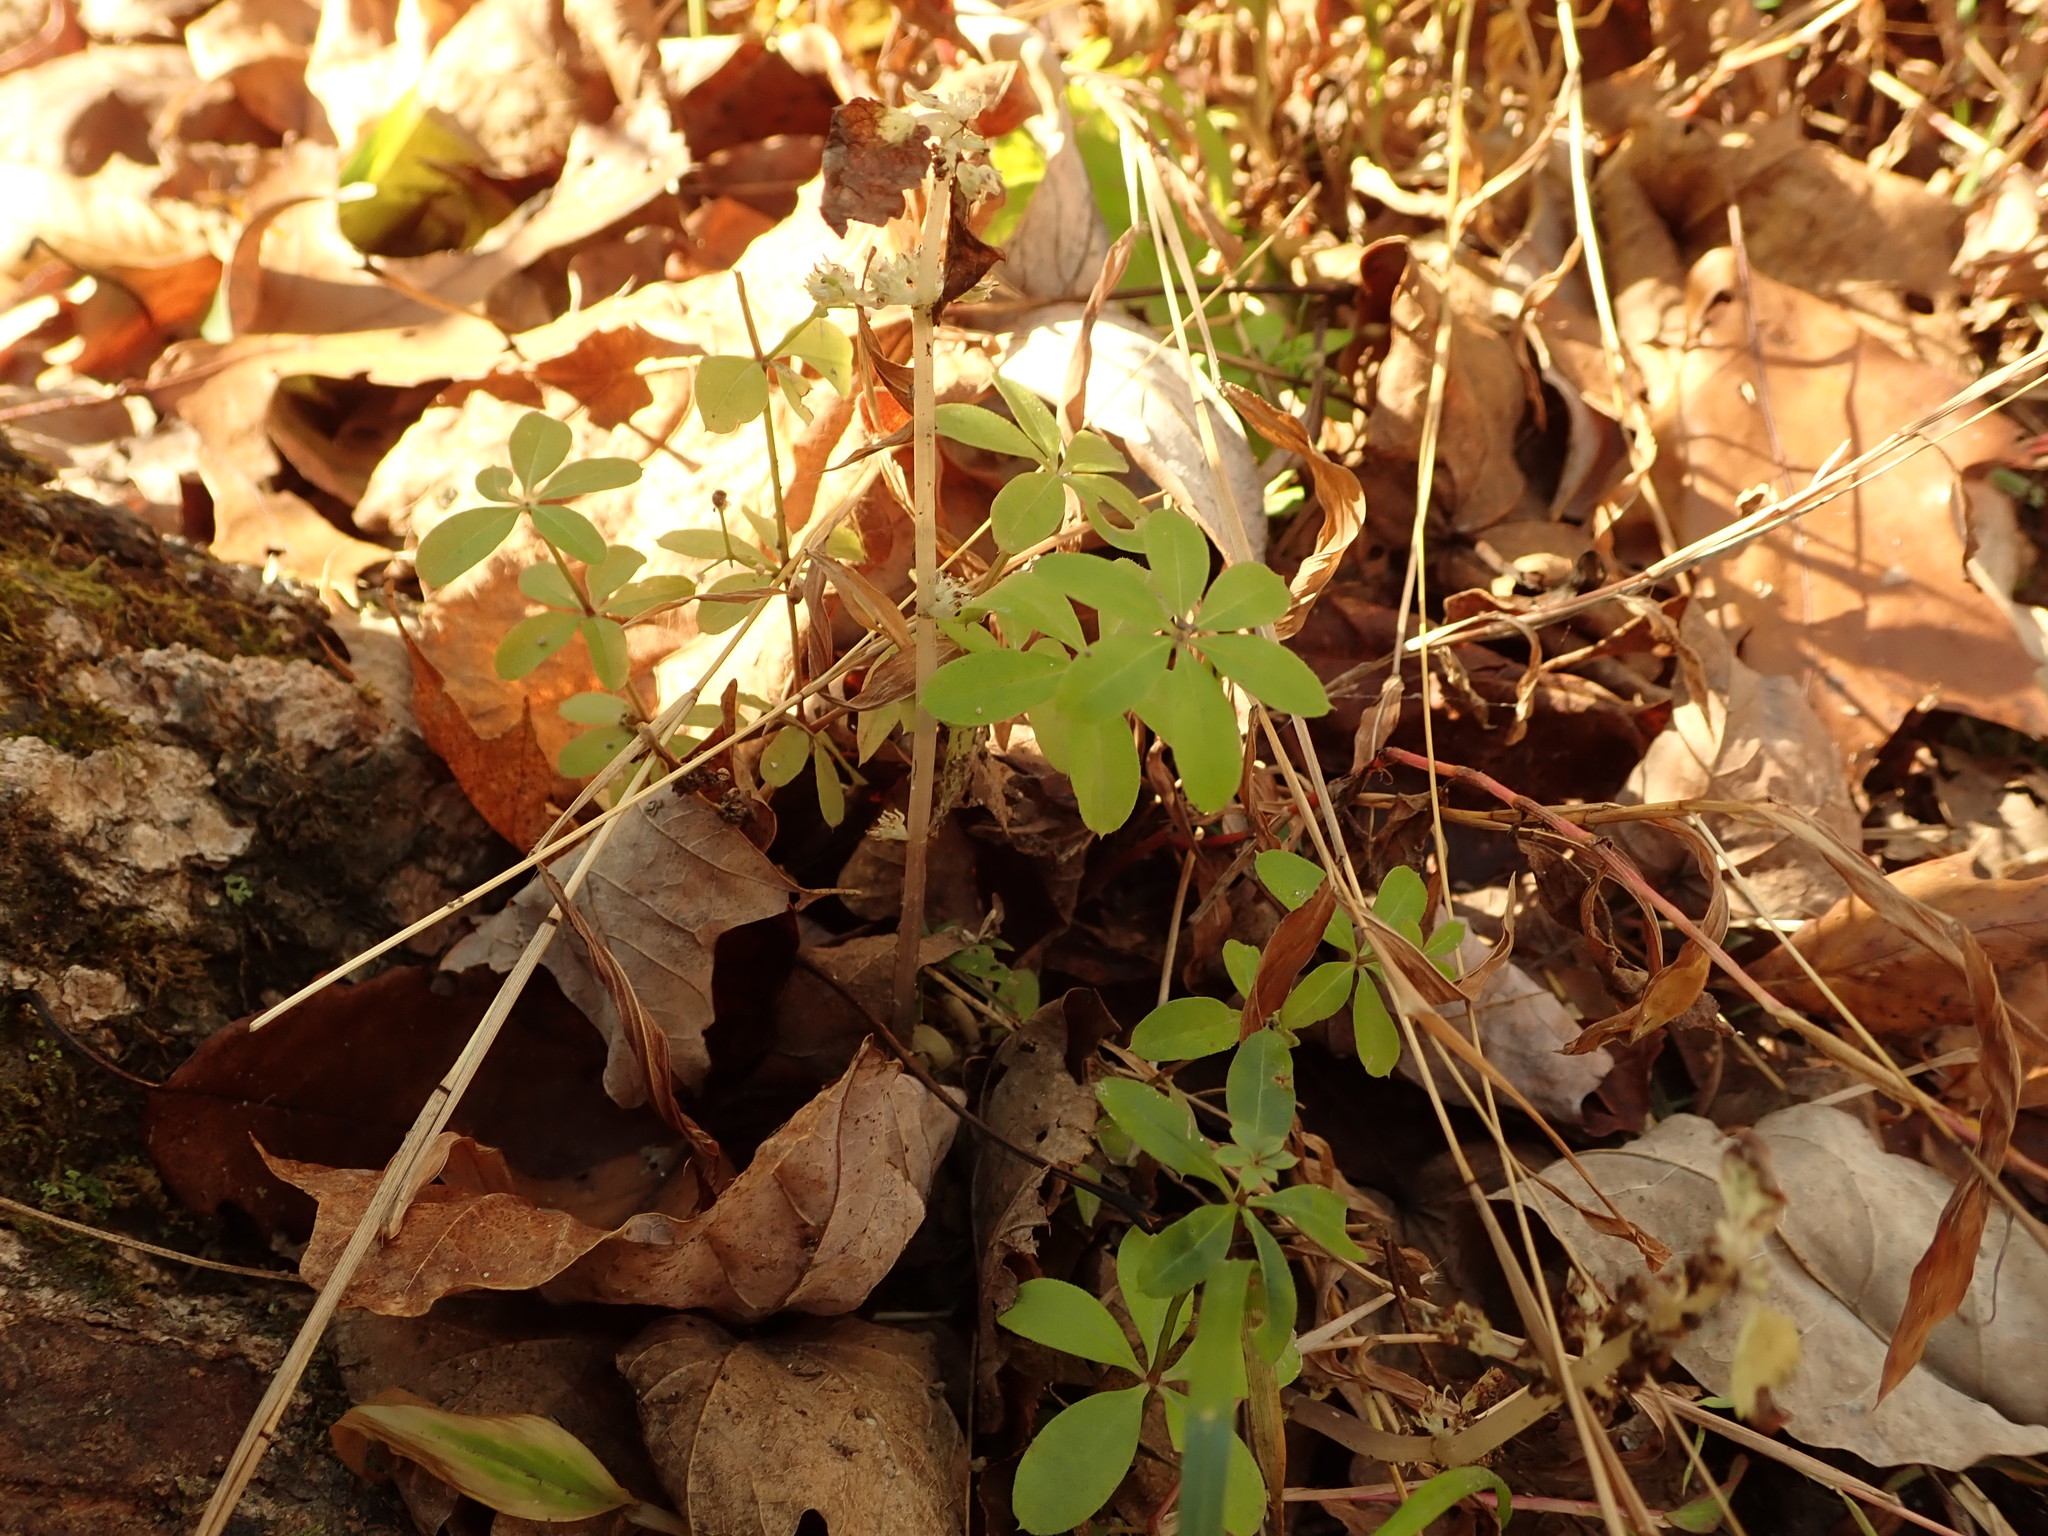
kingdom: Plantae
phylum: Tracheophyta
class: Magnoliopsida
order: Gentianales
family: Rubiaceae
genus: Galium
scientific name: Galium triflorum
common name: Fragrant bedstraw
